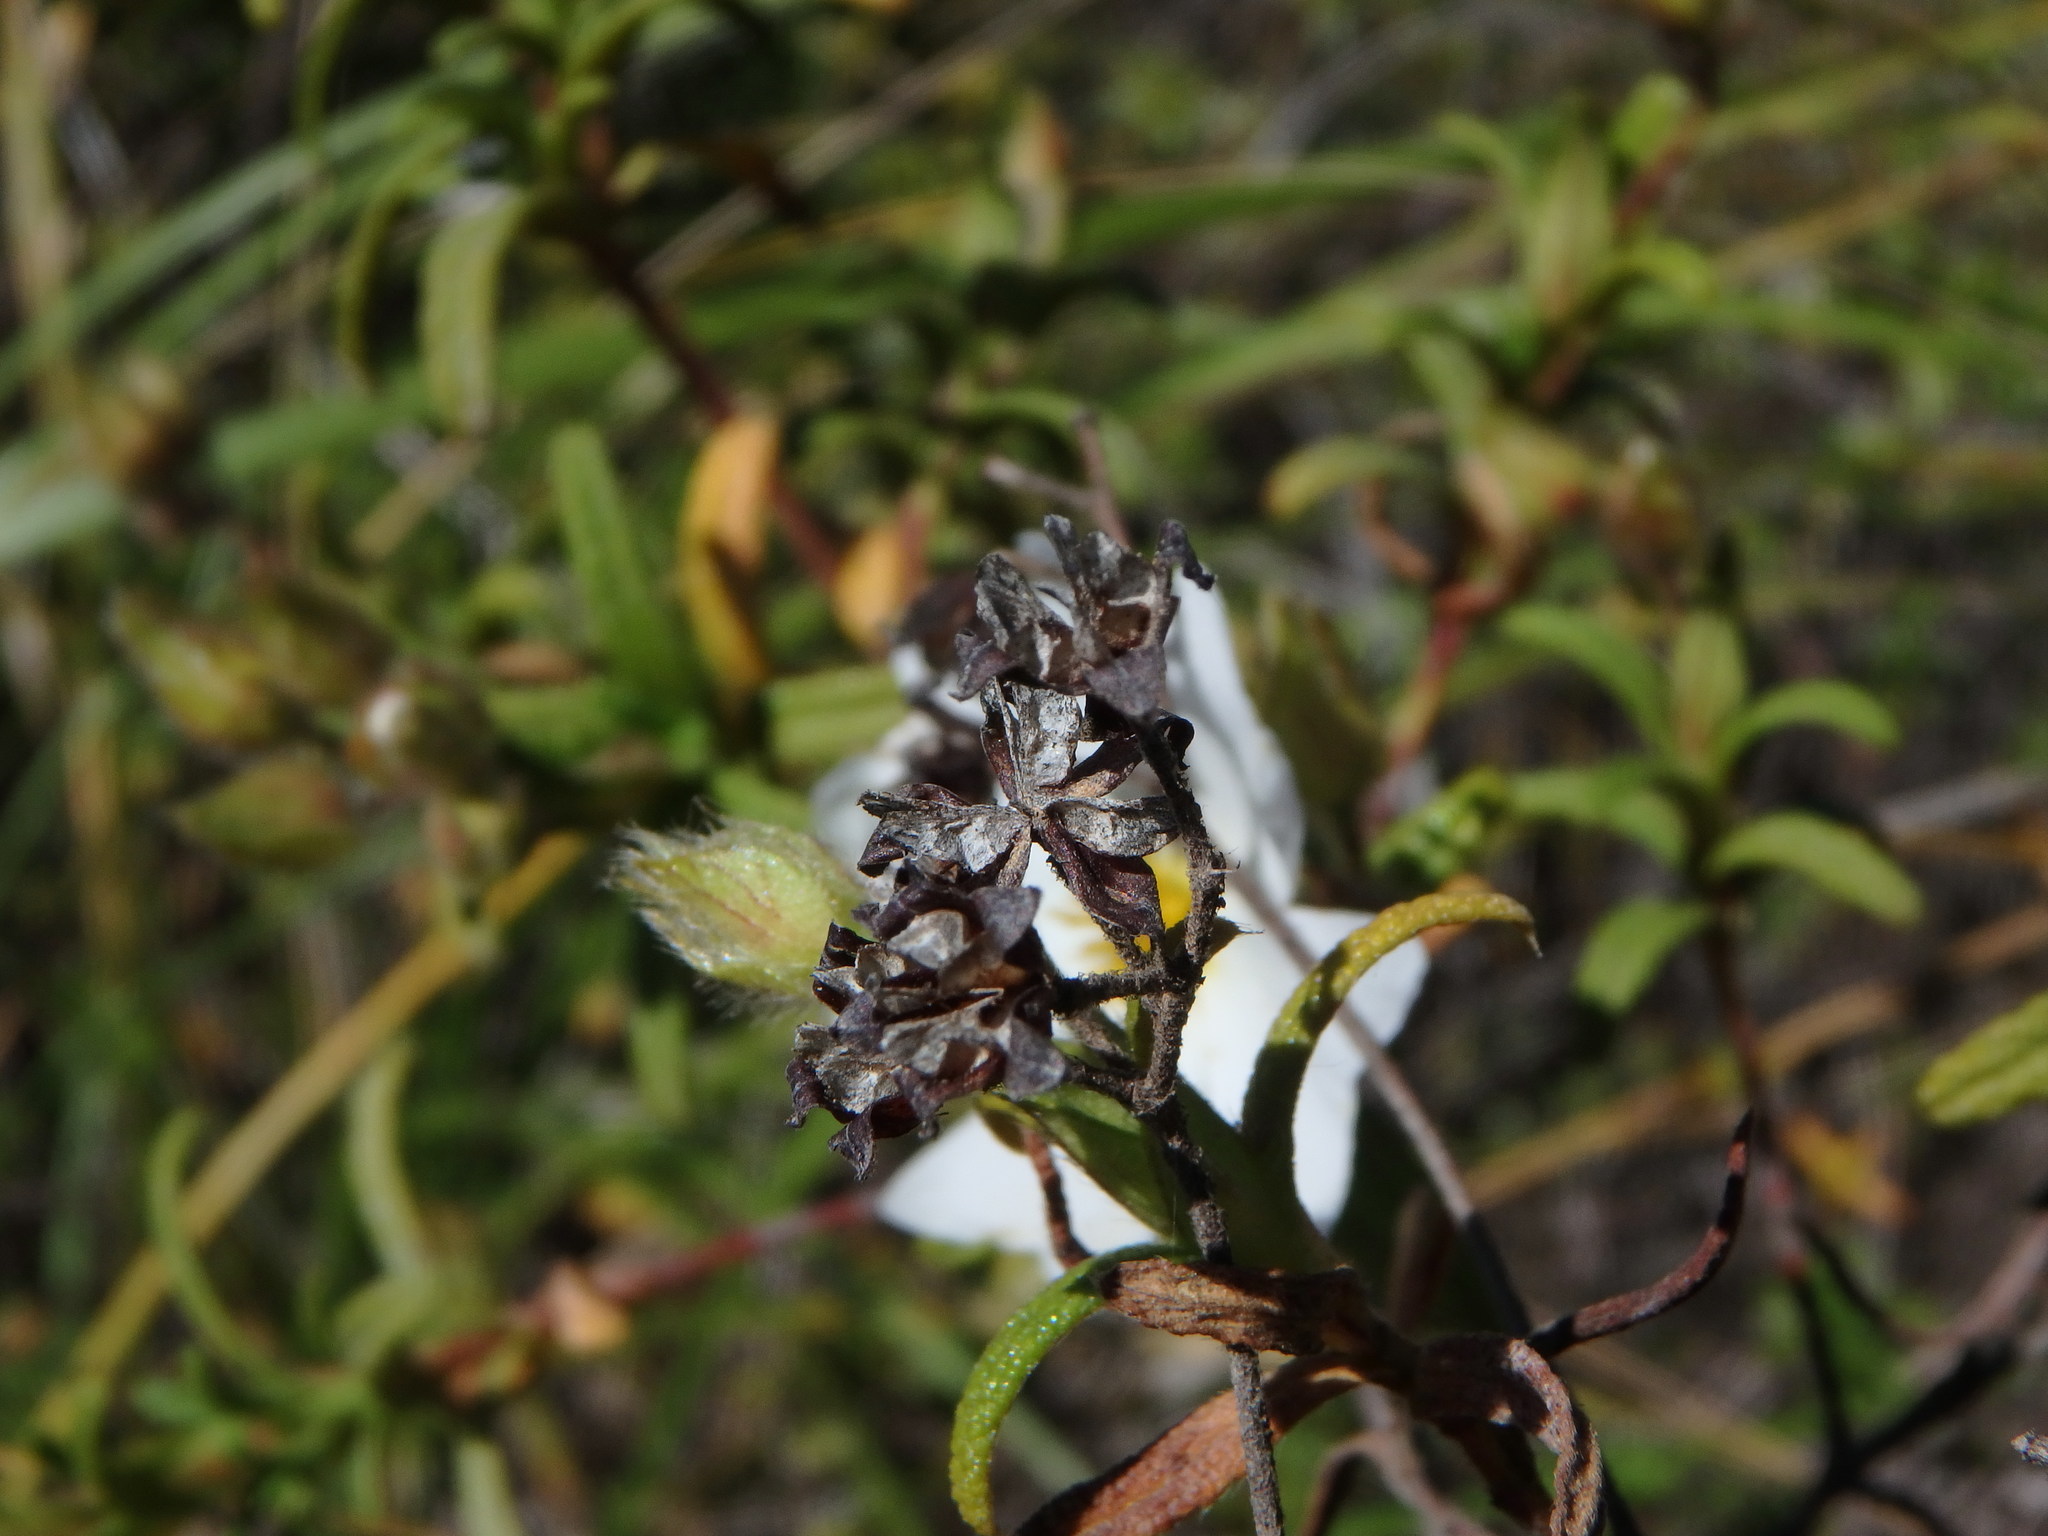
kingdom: Plantae
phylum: Tracheophyta
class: Magnoliopsida
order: Malvales
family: Cistaceae
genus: Cistus
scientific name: Cistus monspeliensis
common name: Montpelier cistus
